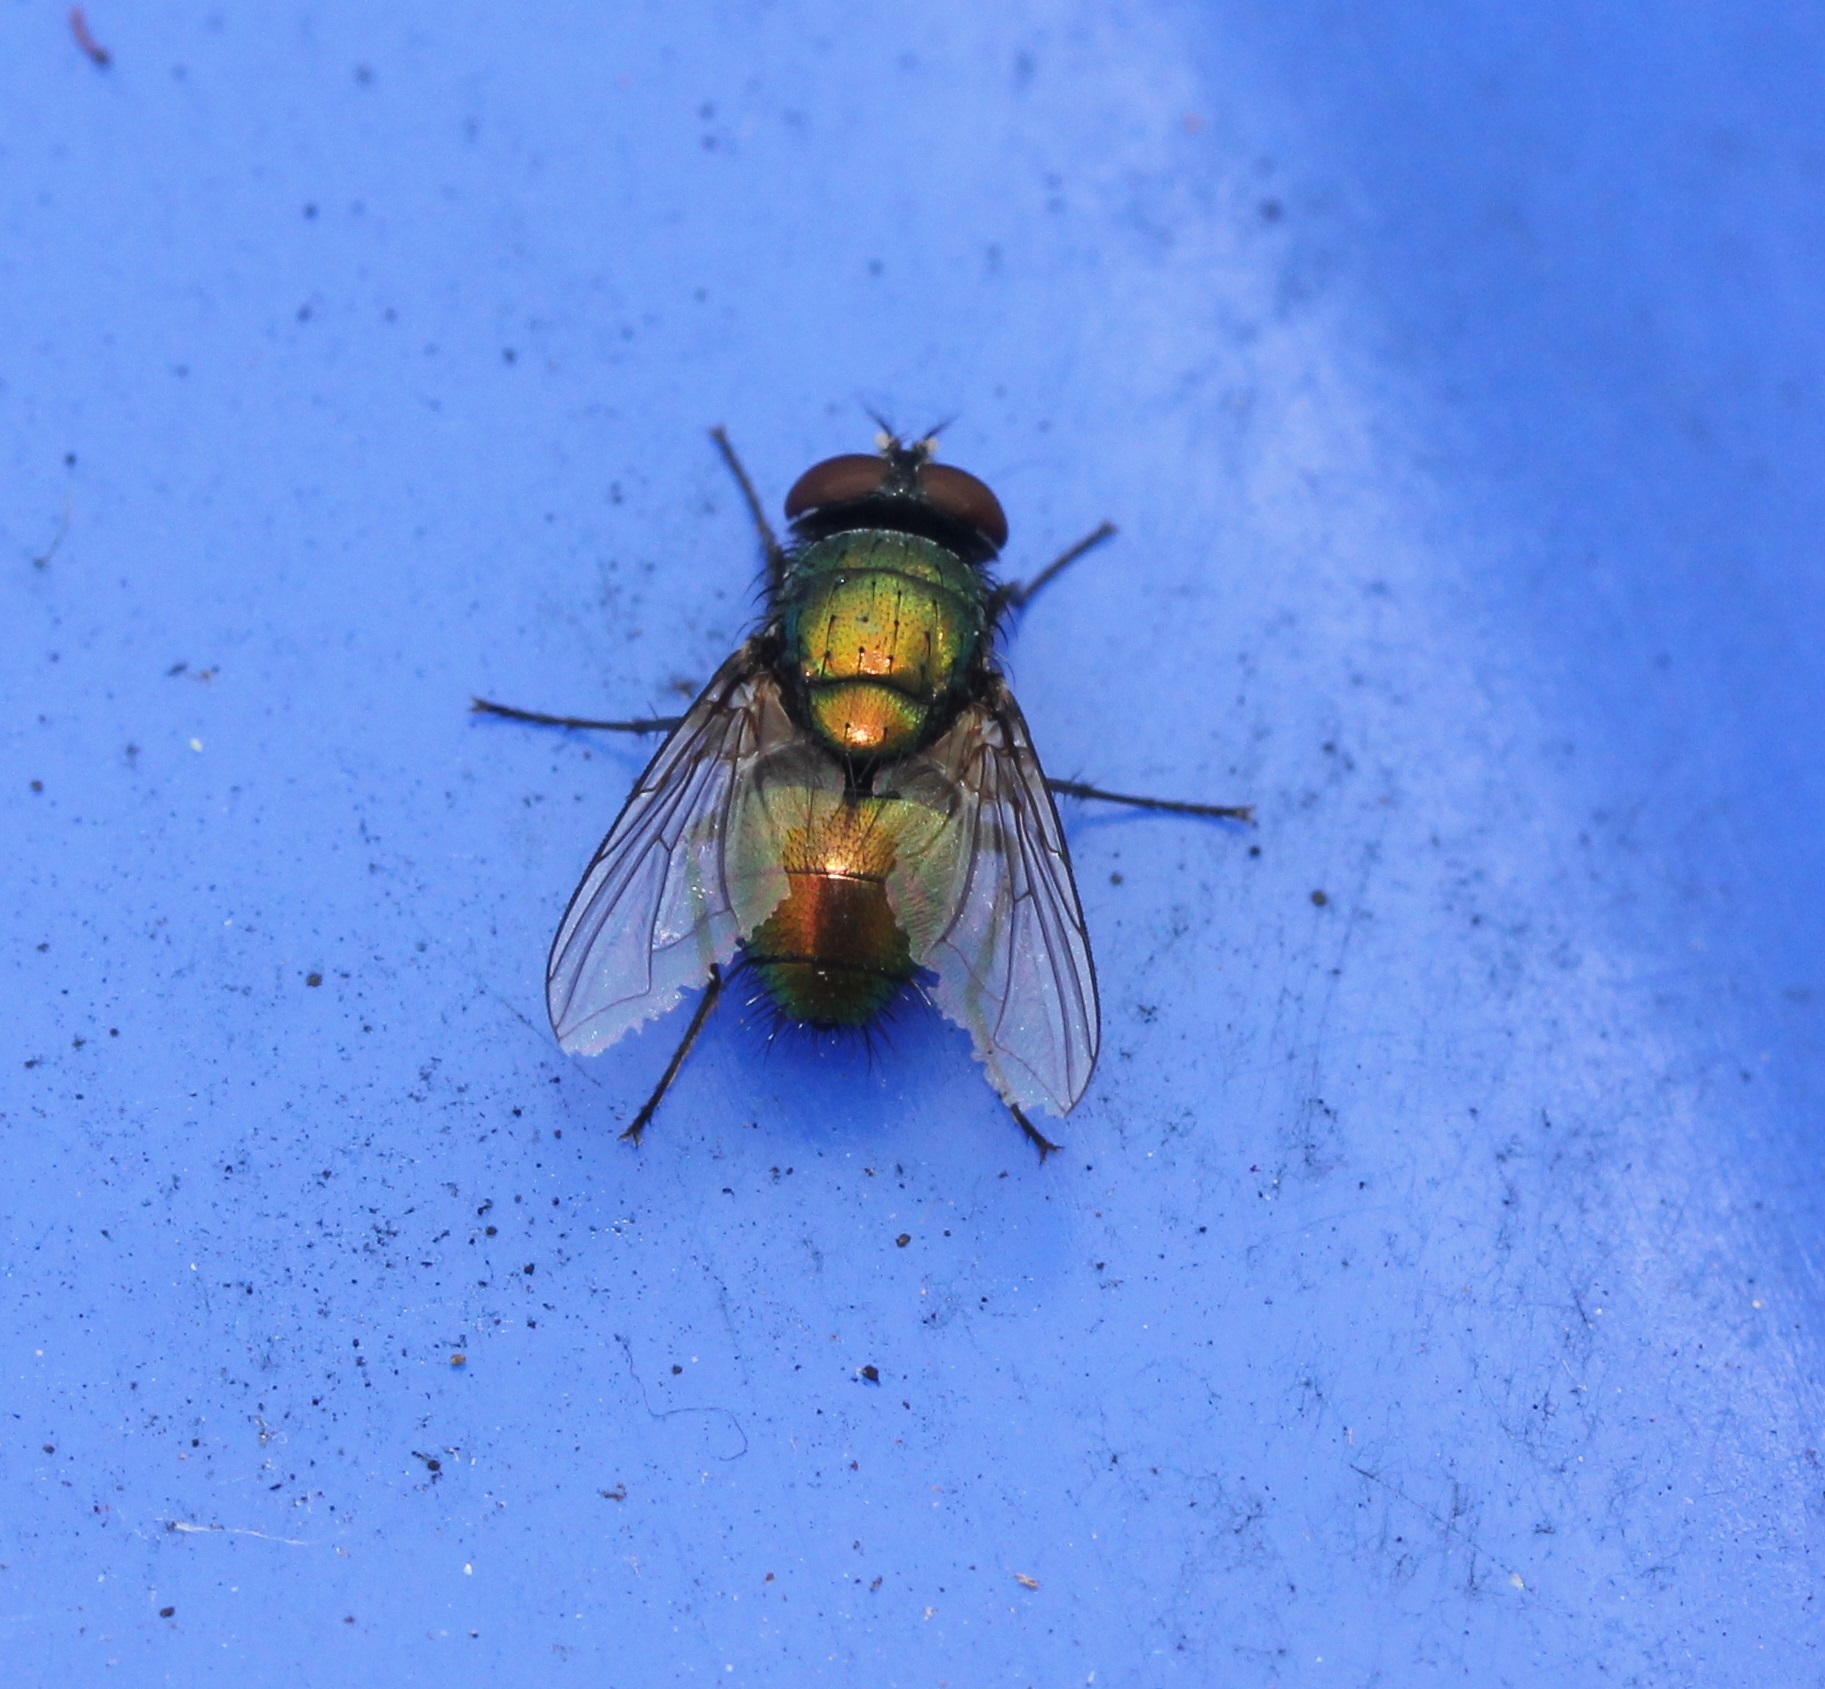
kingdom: Animalia
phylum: Arthropoda
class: Insecta
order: Diptera
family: Calliphoridae
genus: Lucilia
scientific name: Lucilia sericata
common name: Blow fly
